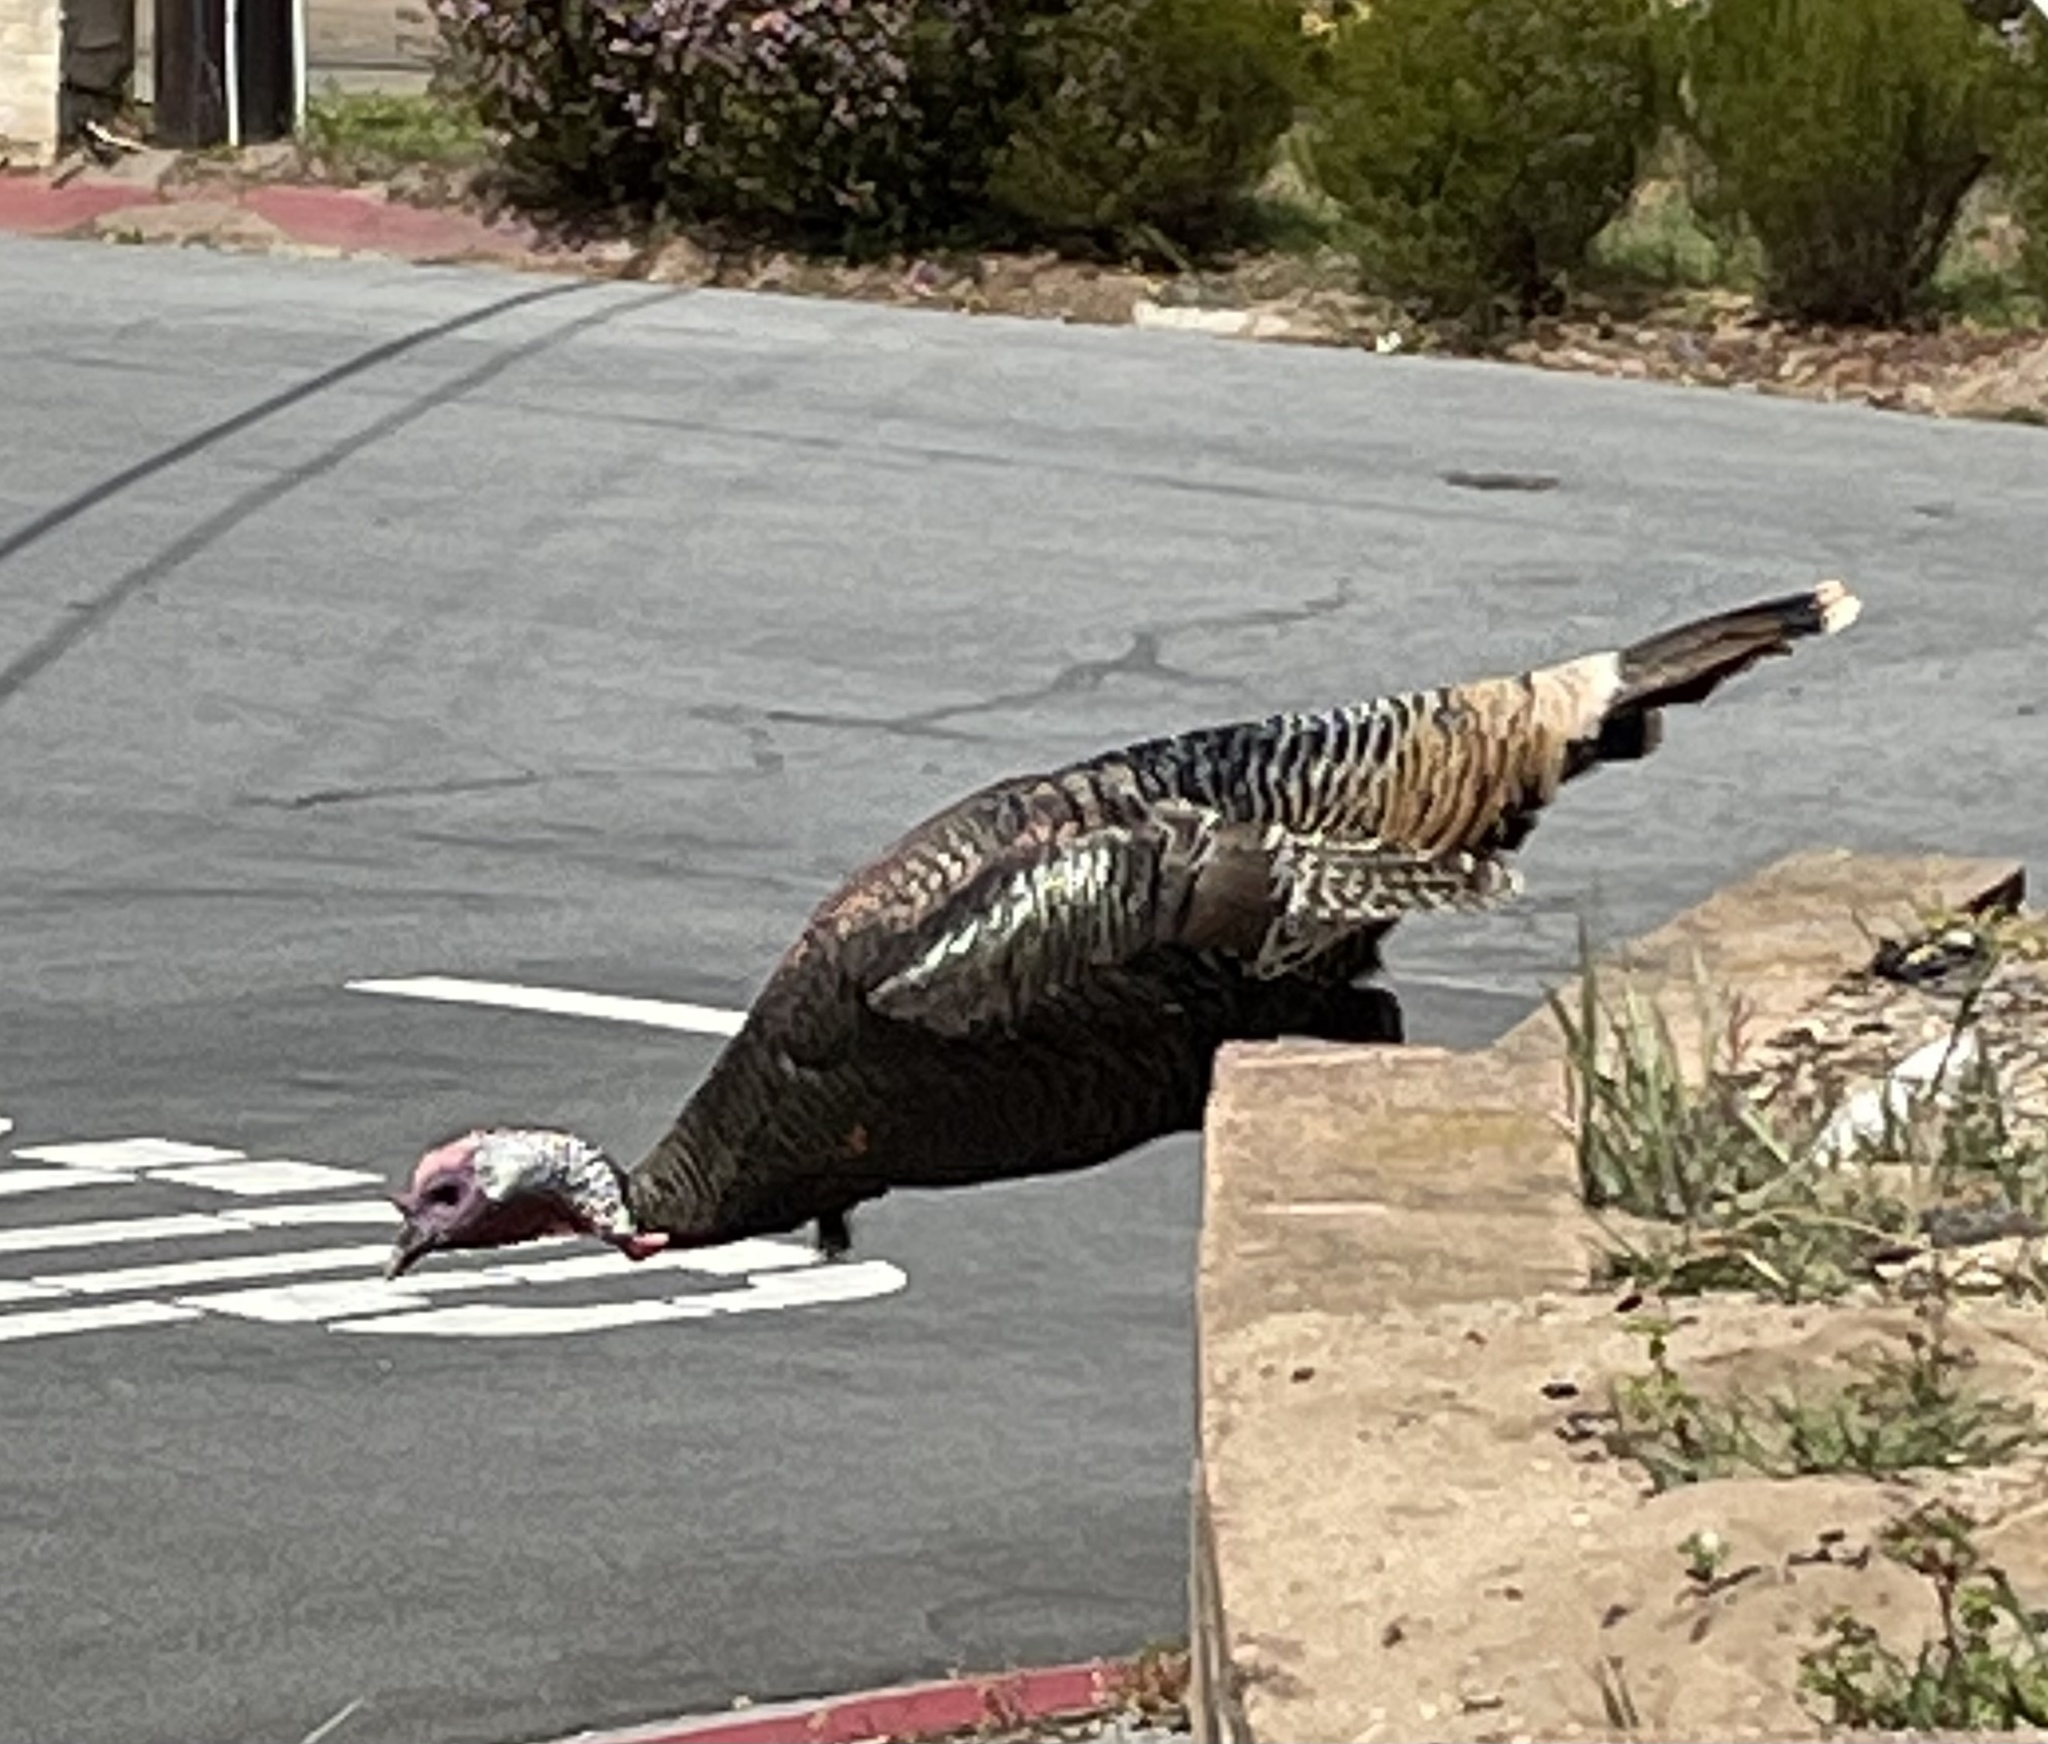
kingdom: Animalia
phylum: Chordata
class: Aves
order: Galliformes
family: Phasianidae
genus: Meleagris
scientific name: Meleagris gallopavo
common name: Wild turkey
